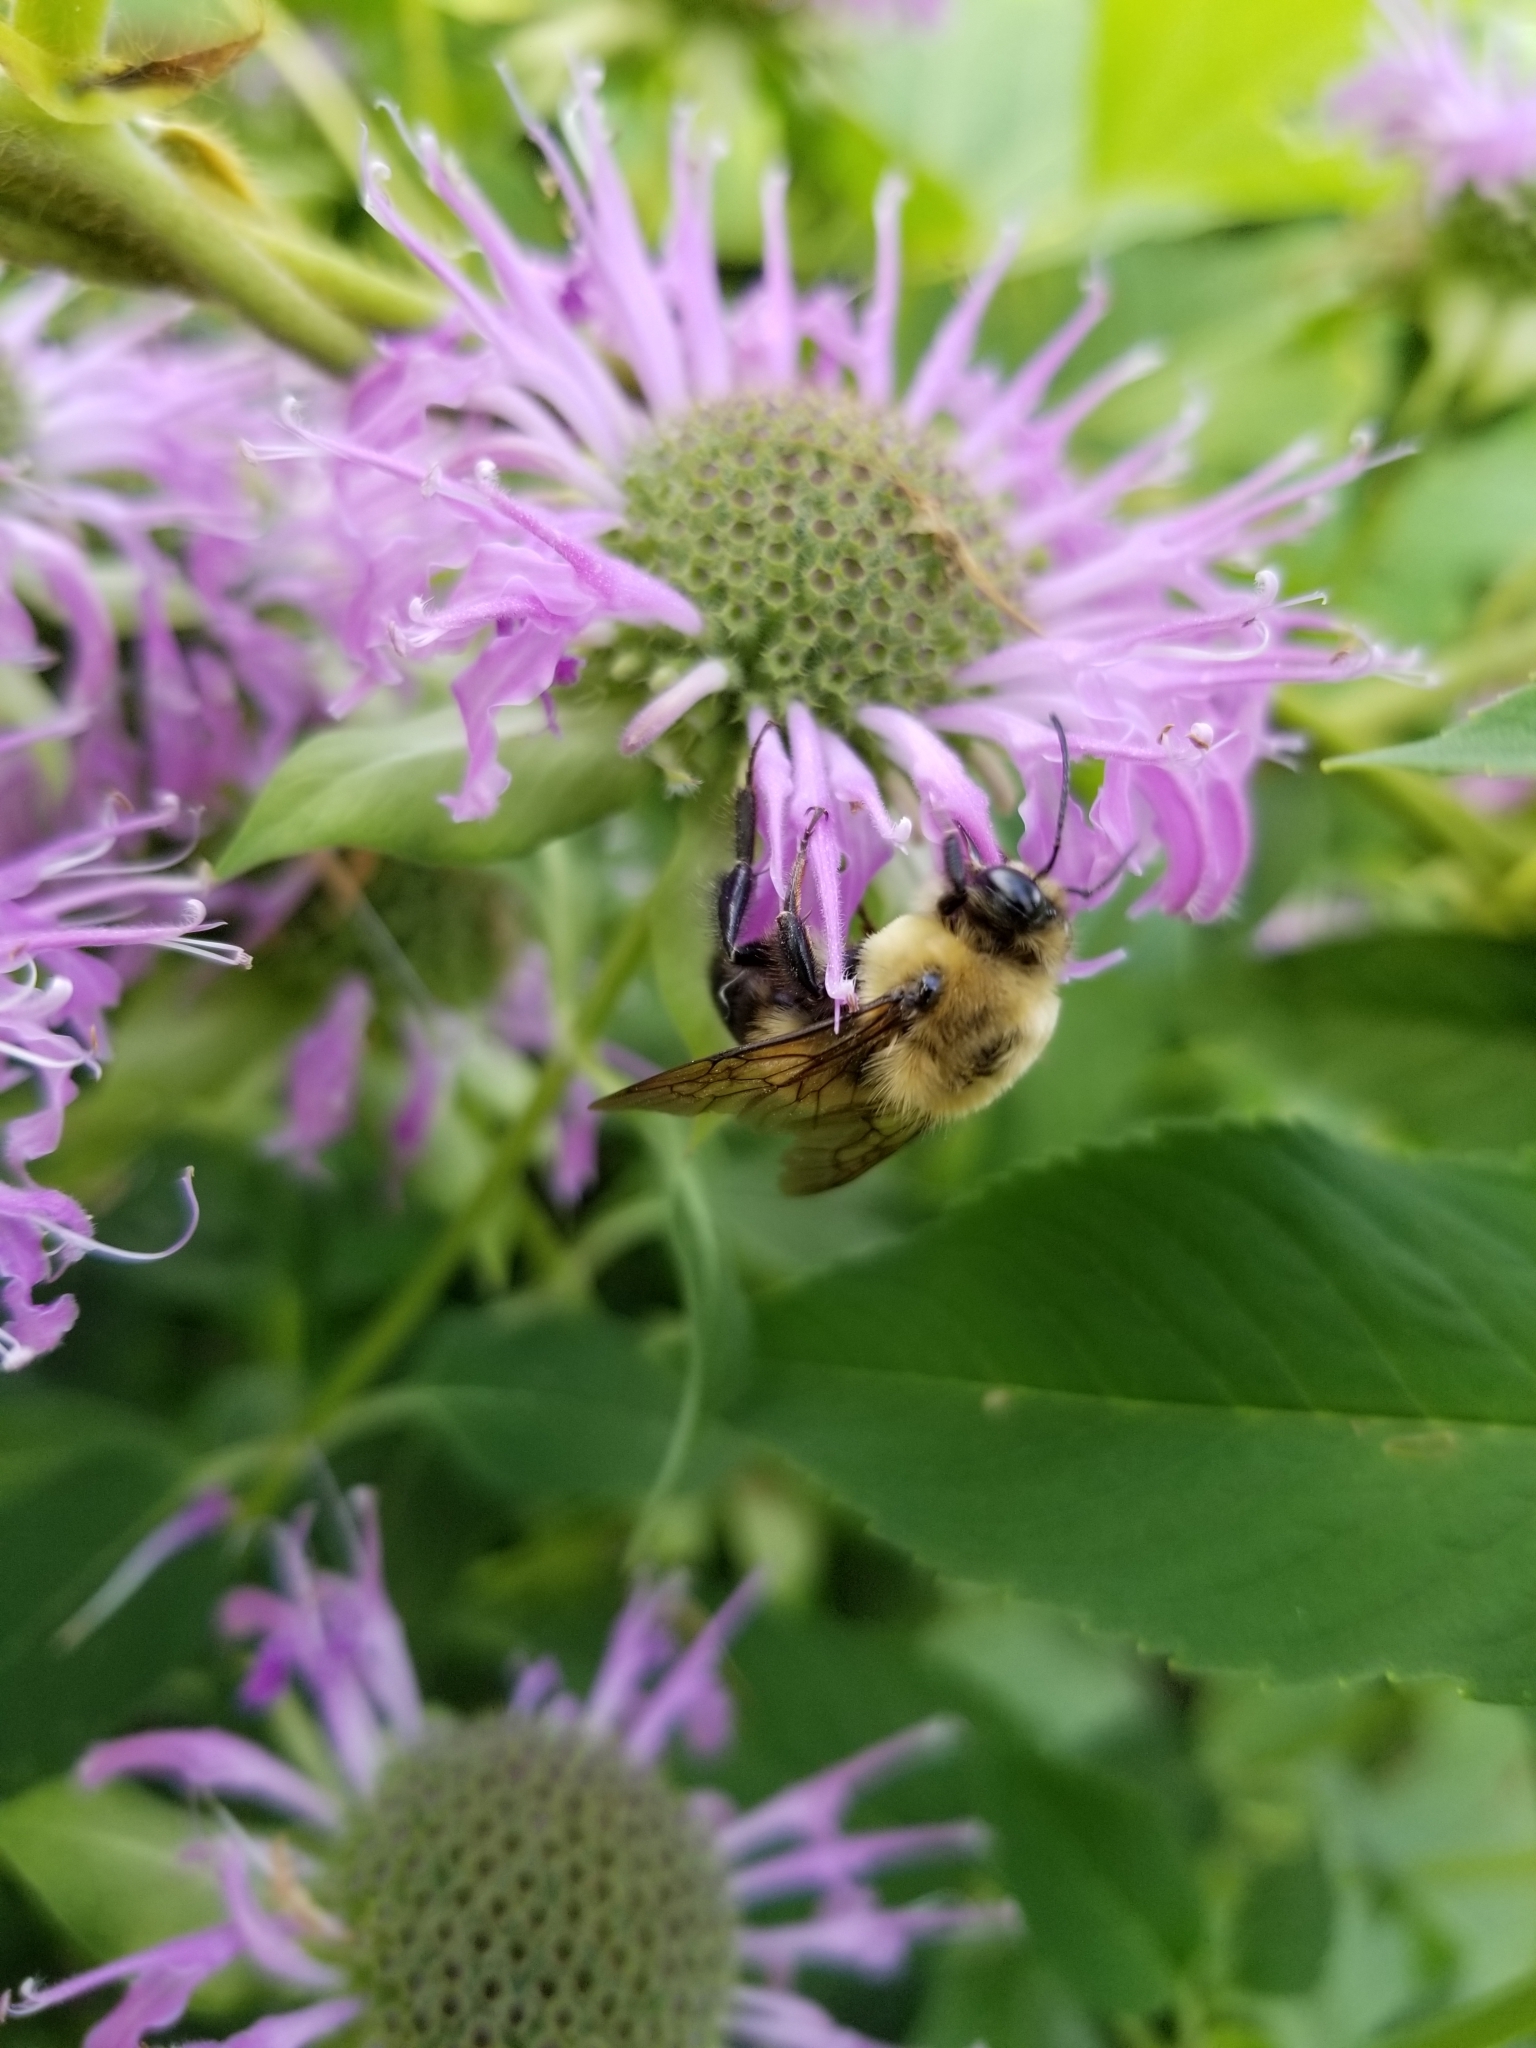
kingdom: Animalia
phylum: Arthropoda
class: Insecta
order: Hymenoptera
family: Apidae
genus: Bombus
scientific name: Bombus griseocollis
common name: Brown-belted bumble bee
